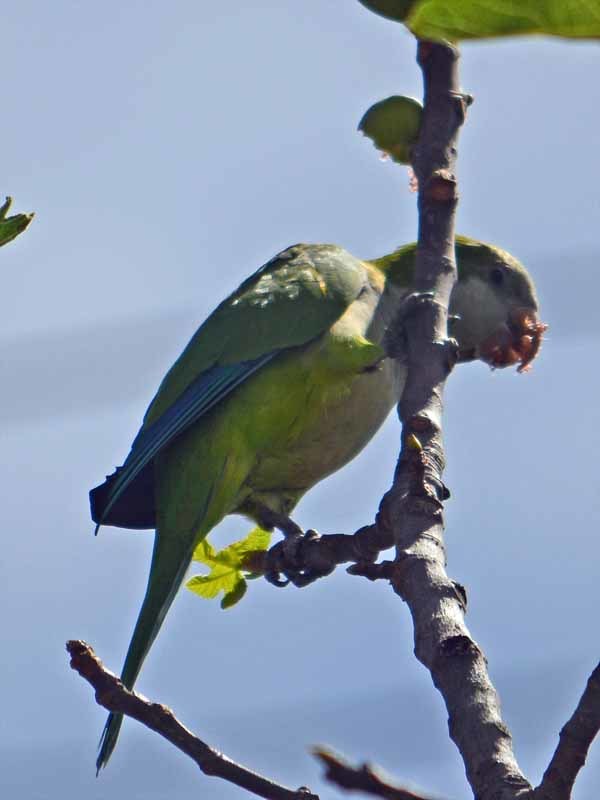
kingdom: Animalia
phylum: Chordata
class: Aves
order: Psittaciformes
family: Psittacidae
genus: Myiopsitta
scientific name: Myiopsitta monachus
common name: Monk parakeet
